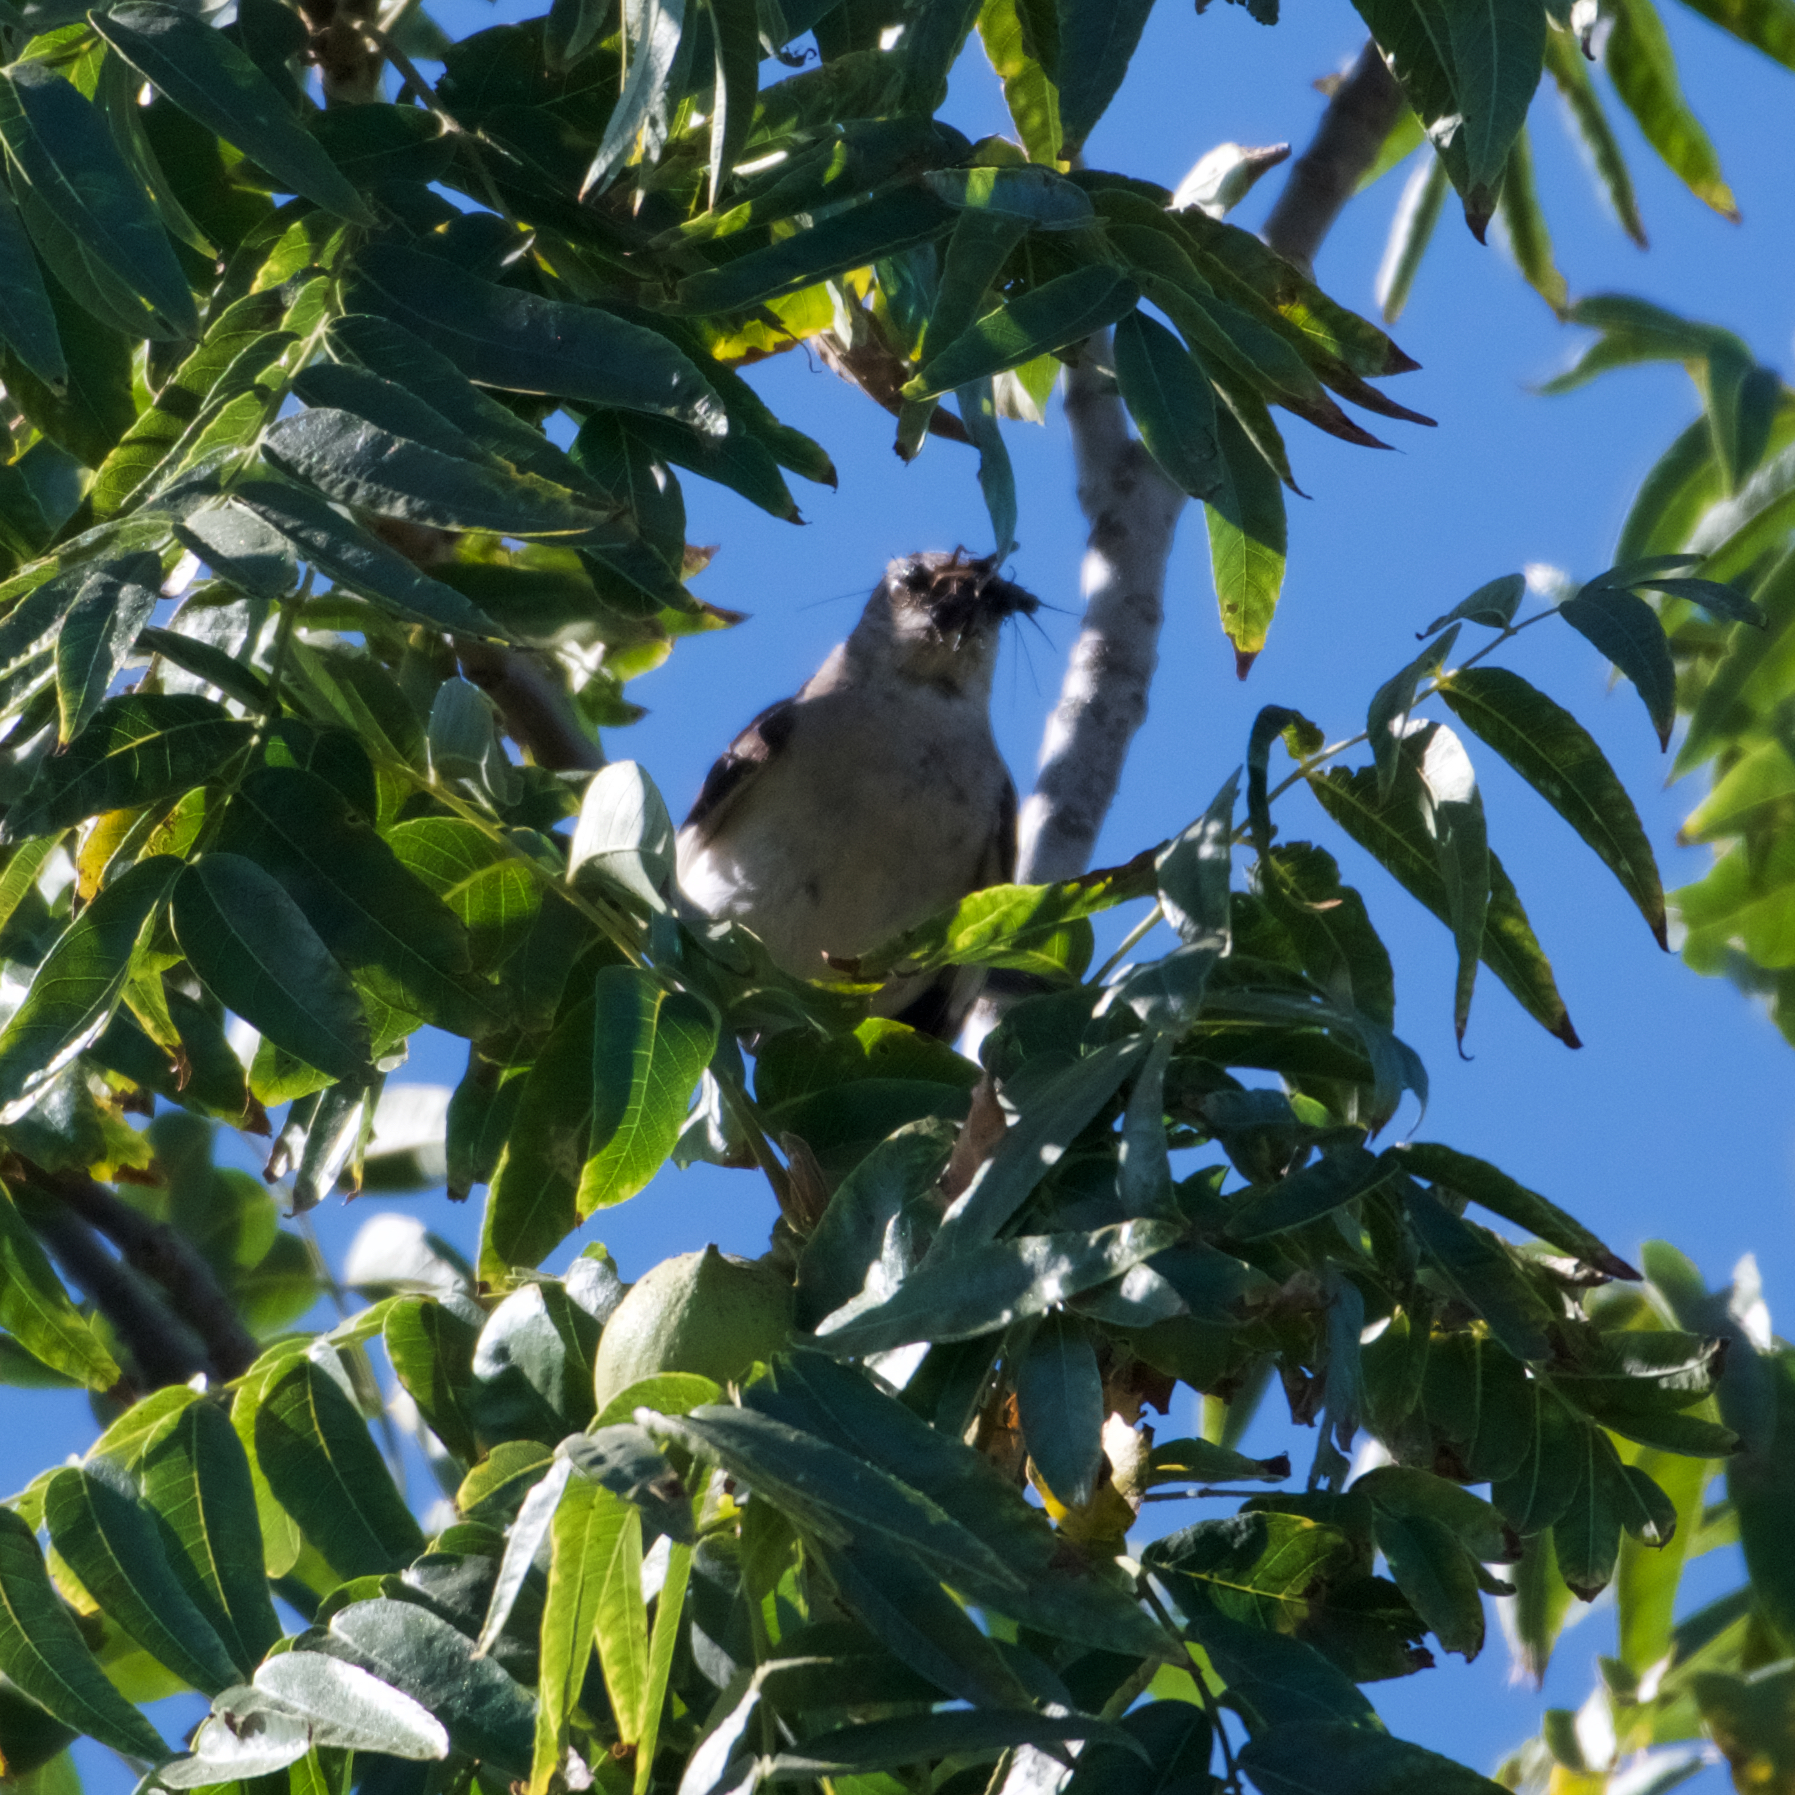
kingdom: Animalia
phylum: Chordata
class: Aves
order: Passeriformes
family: Mimidae
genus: Mimus
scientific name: Mimus polyglottos
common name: Northern mockingbird
